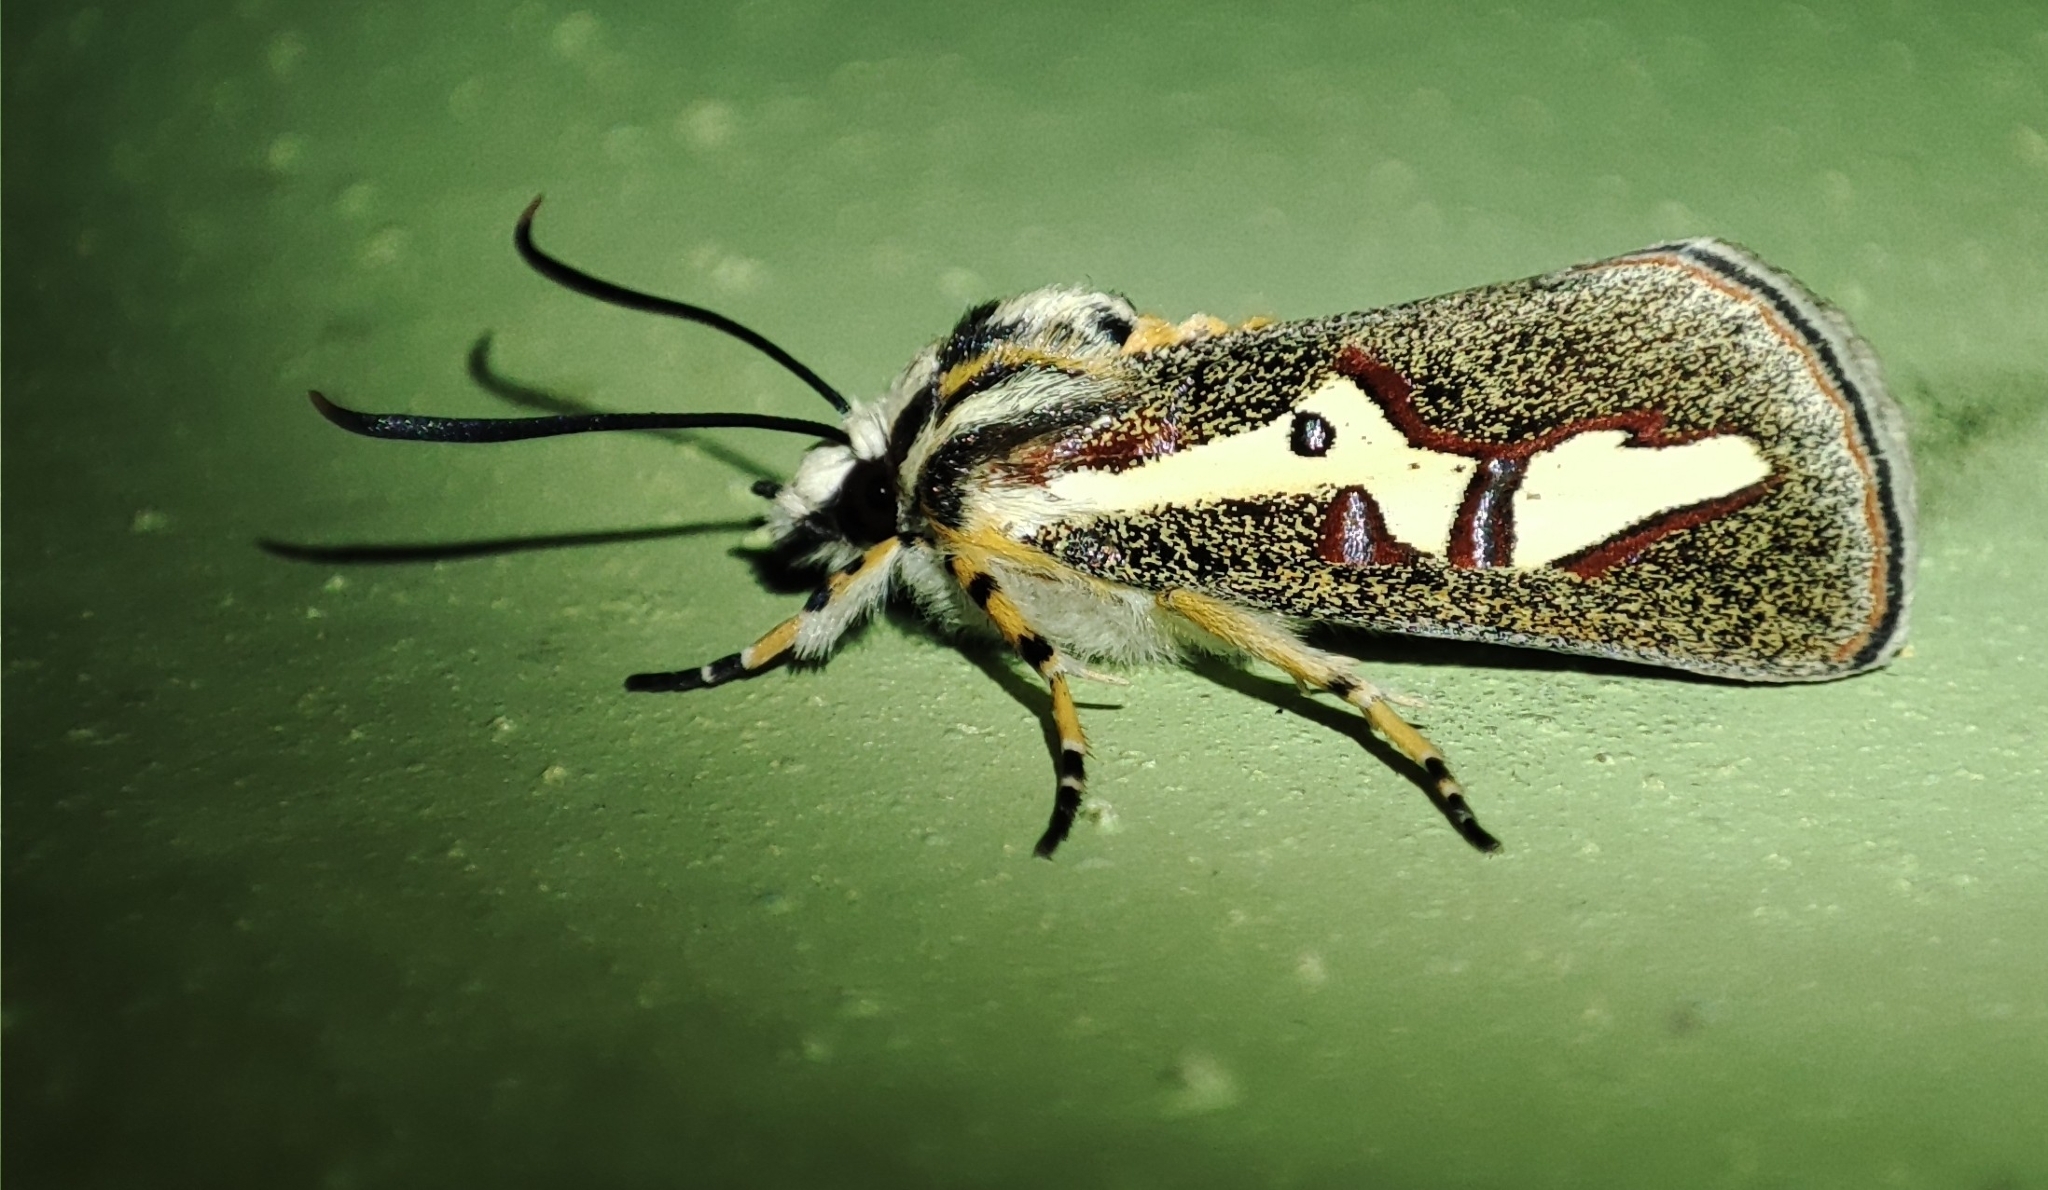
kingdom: Animalia
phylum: Arthropoda
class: Insecta
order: Lepidoptera
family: Noctuidae
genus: Aegocera
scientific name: Aegocera venulia
